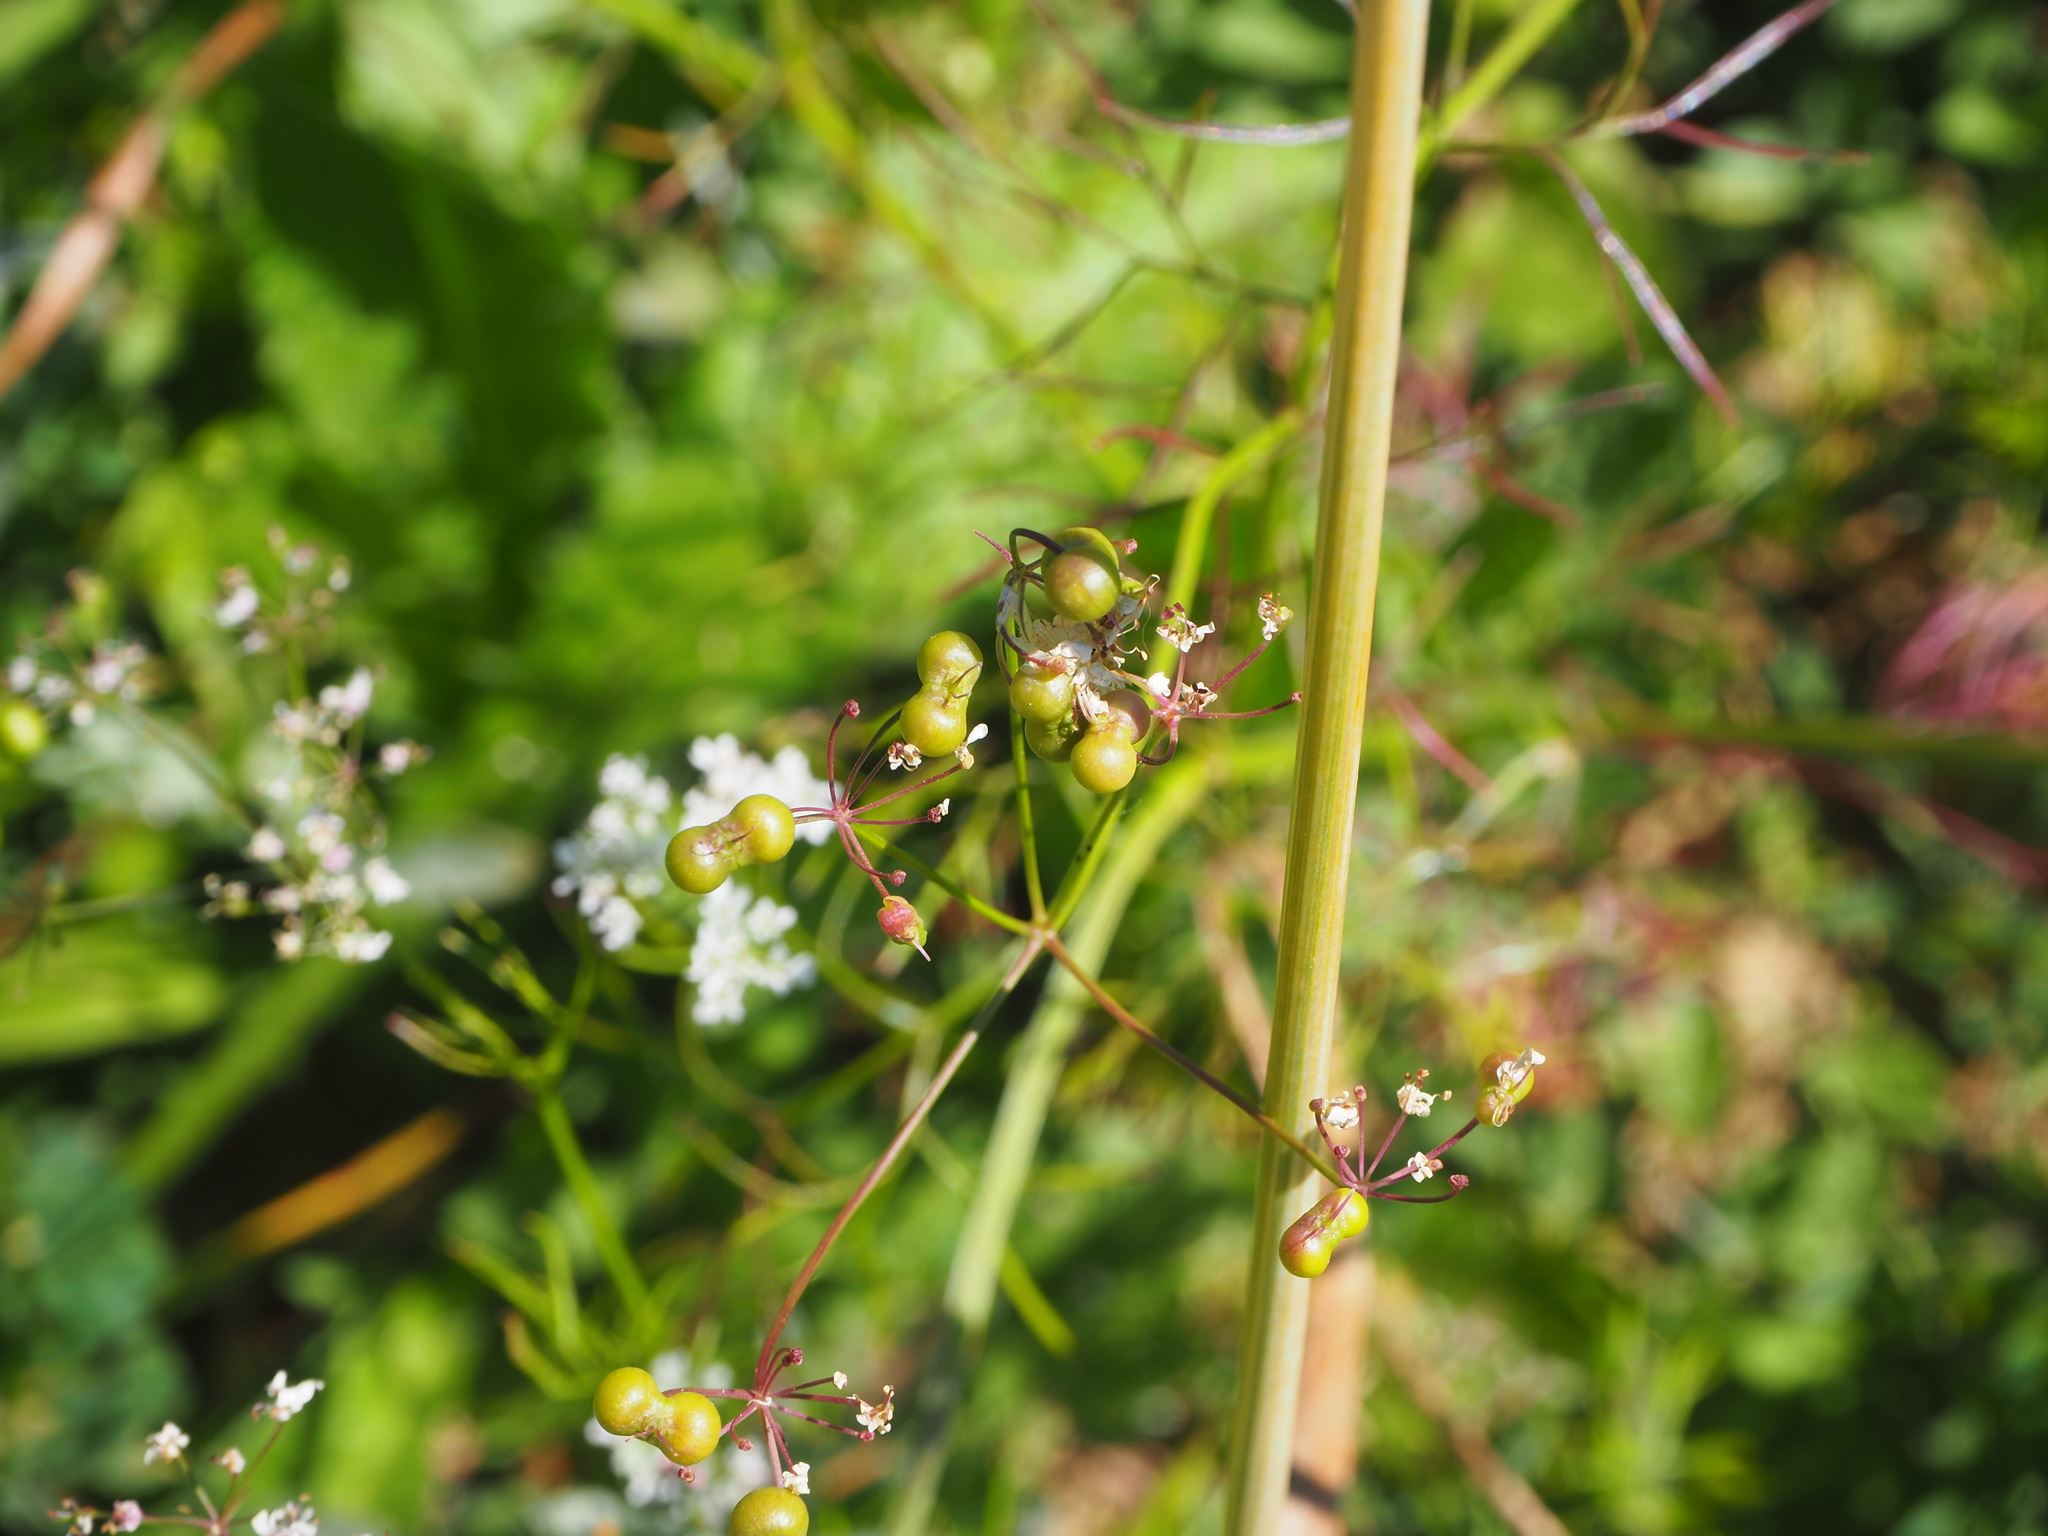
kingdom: Plantae
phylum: Tracheophyta
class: Magnoliopsida
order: Apiales
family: Apiaceae
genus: Bifora
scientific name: Bifora radians
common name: Wild bishop
